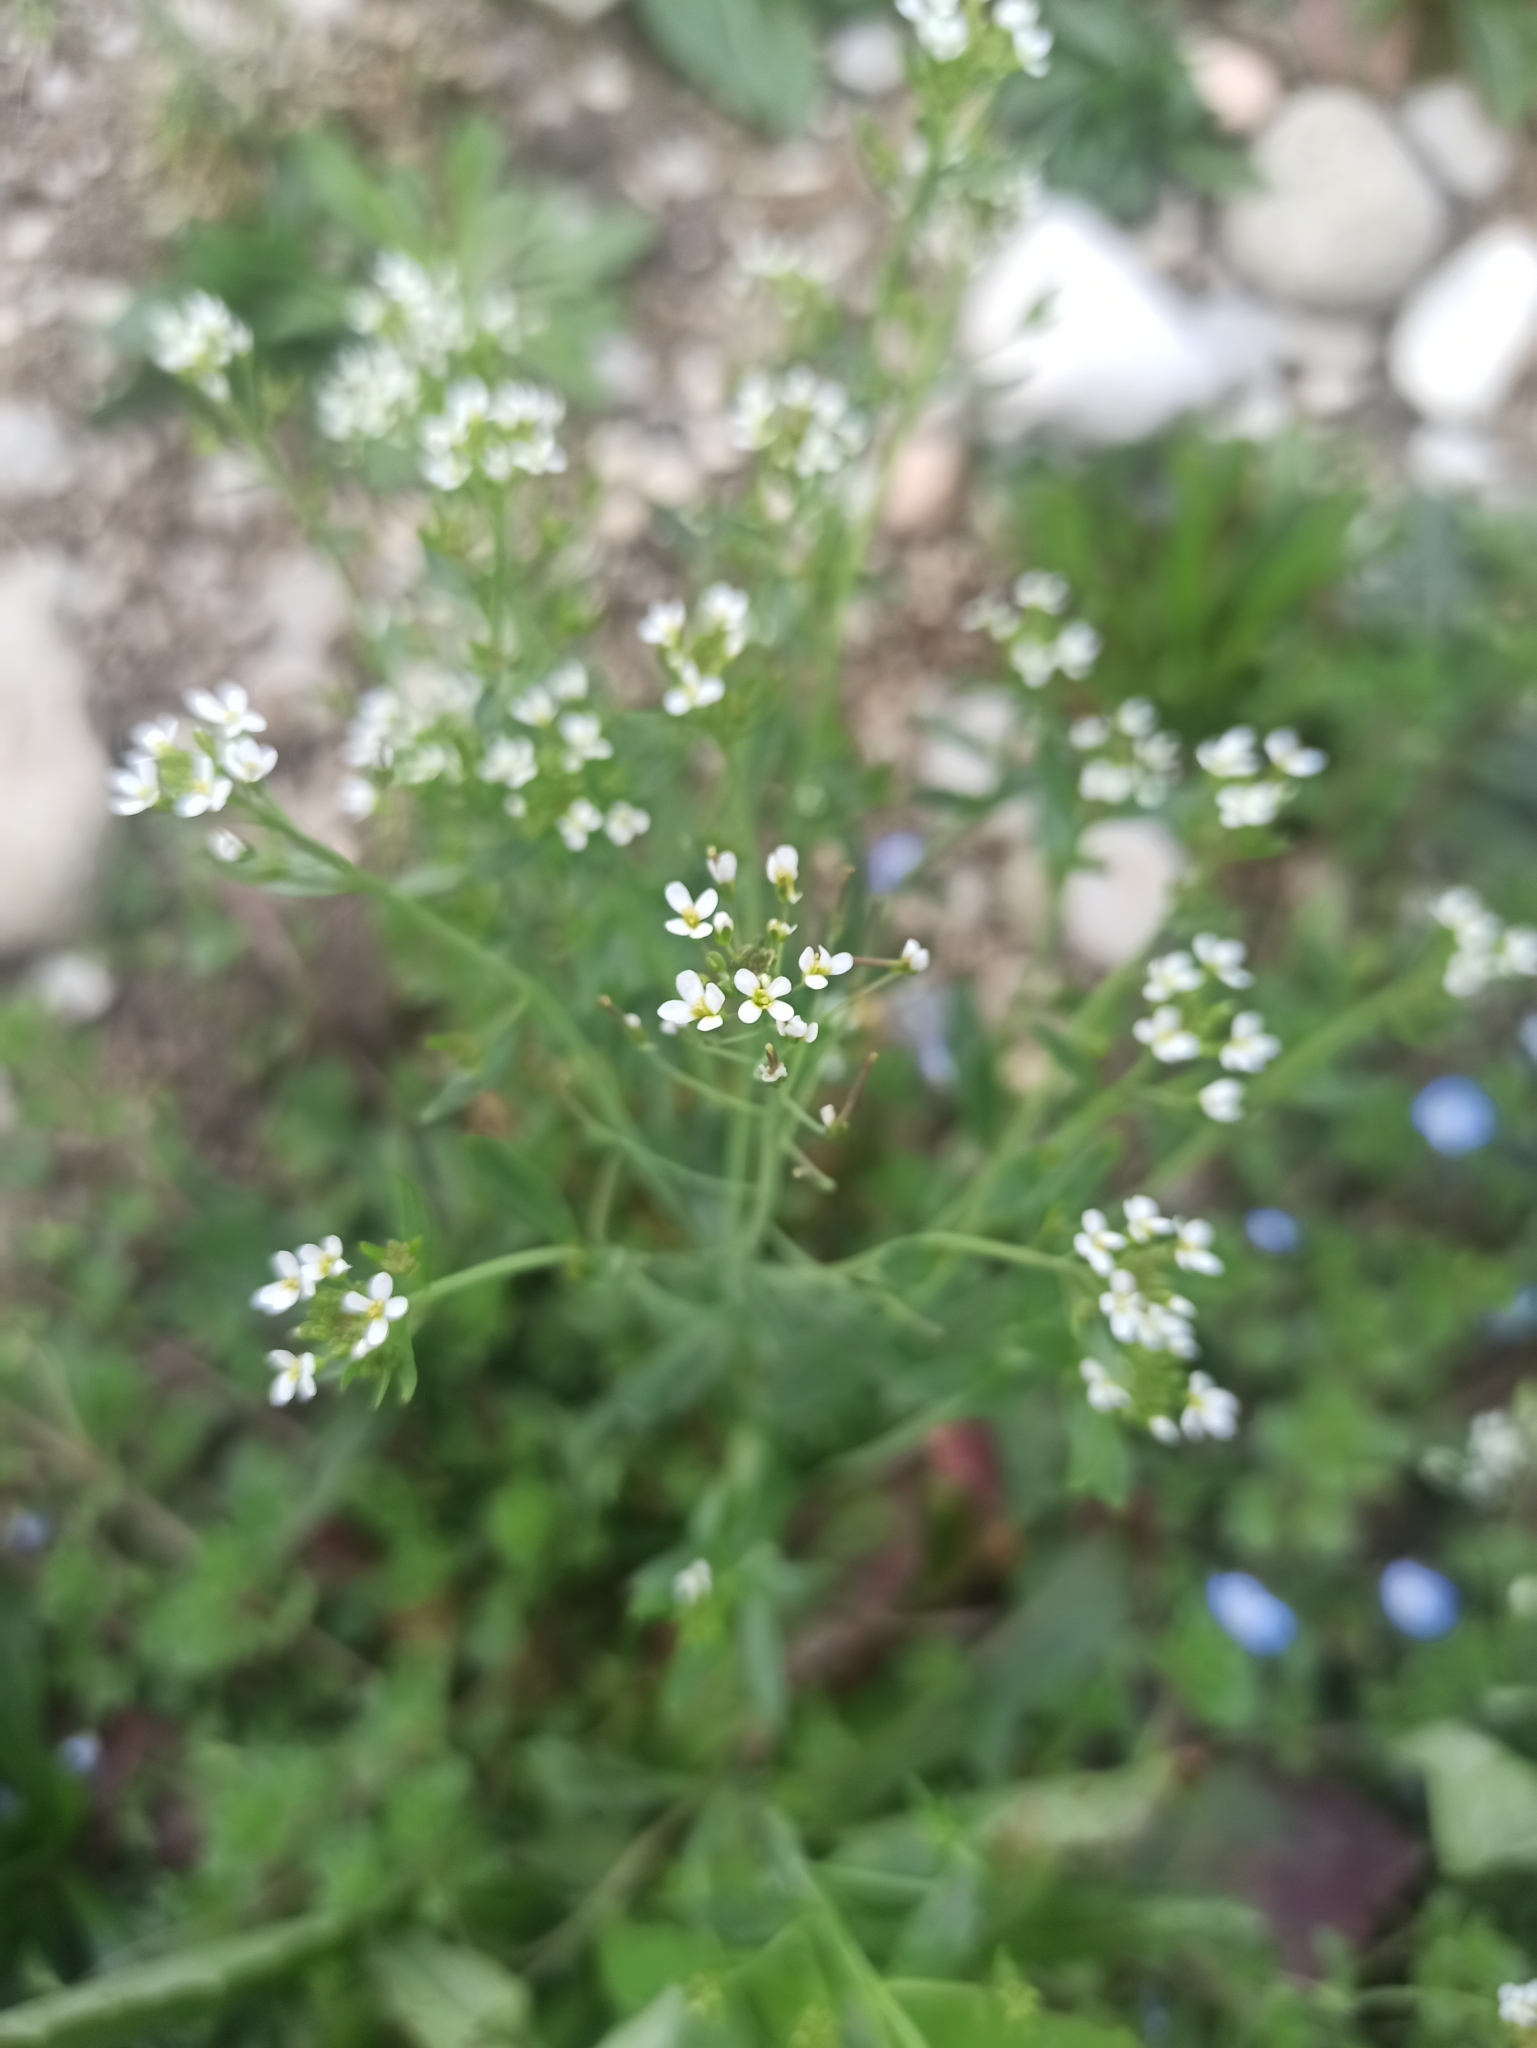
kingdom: Plantae
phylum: Tracheophyta
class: Magnoliopsida
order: Brassicales
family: Brassicaceae
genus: Arabidopsis
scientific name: Arabidopsis thaliana
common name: Thale cress
